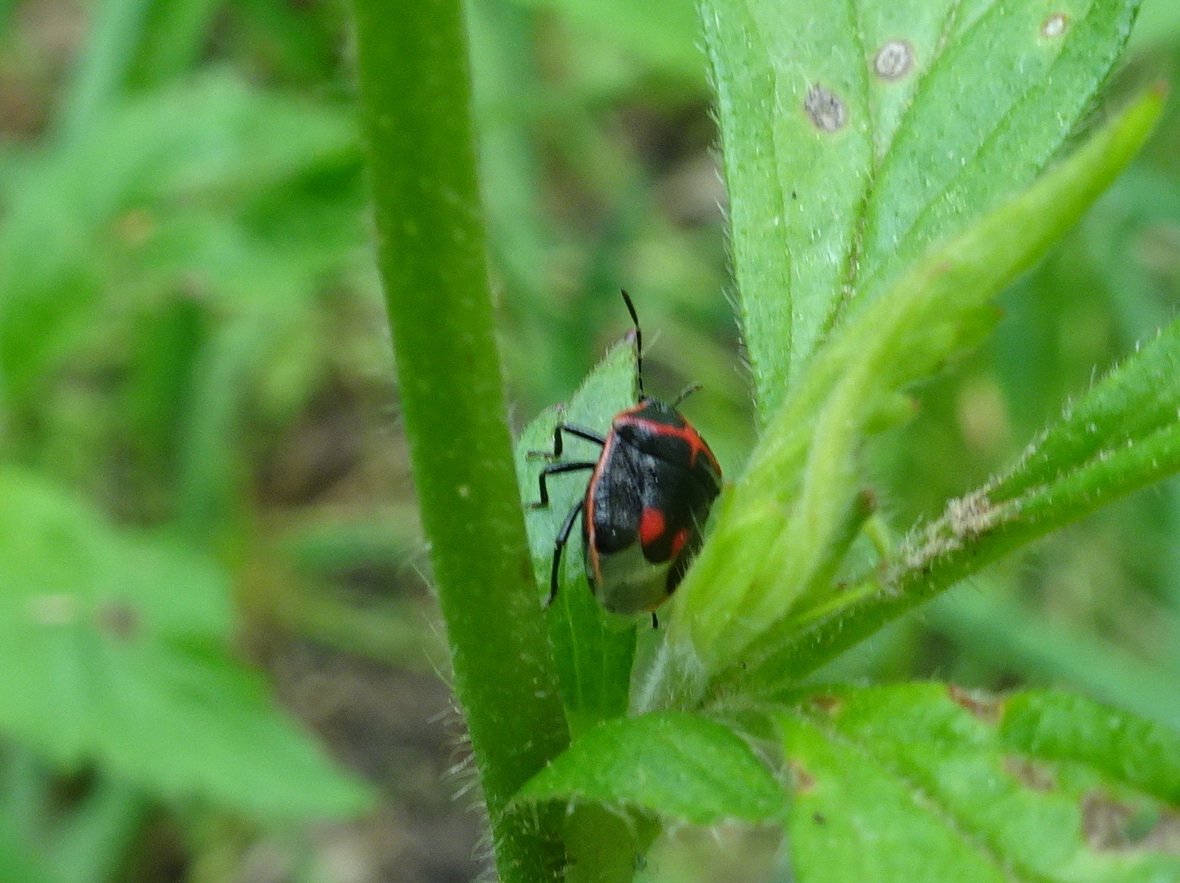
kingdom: Animalia
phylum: Arthropoda
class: Insecta
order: Hemiptera
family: Pentatomidae
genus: Cosmopepla
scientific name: Cosmopepla lintneriana
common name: Twice-stabbed stink bug
